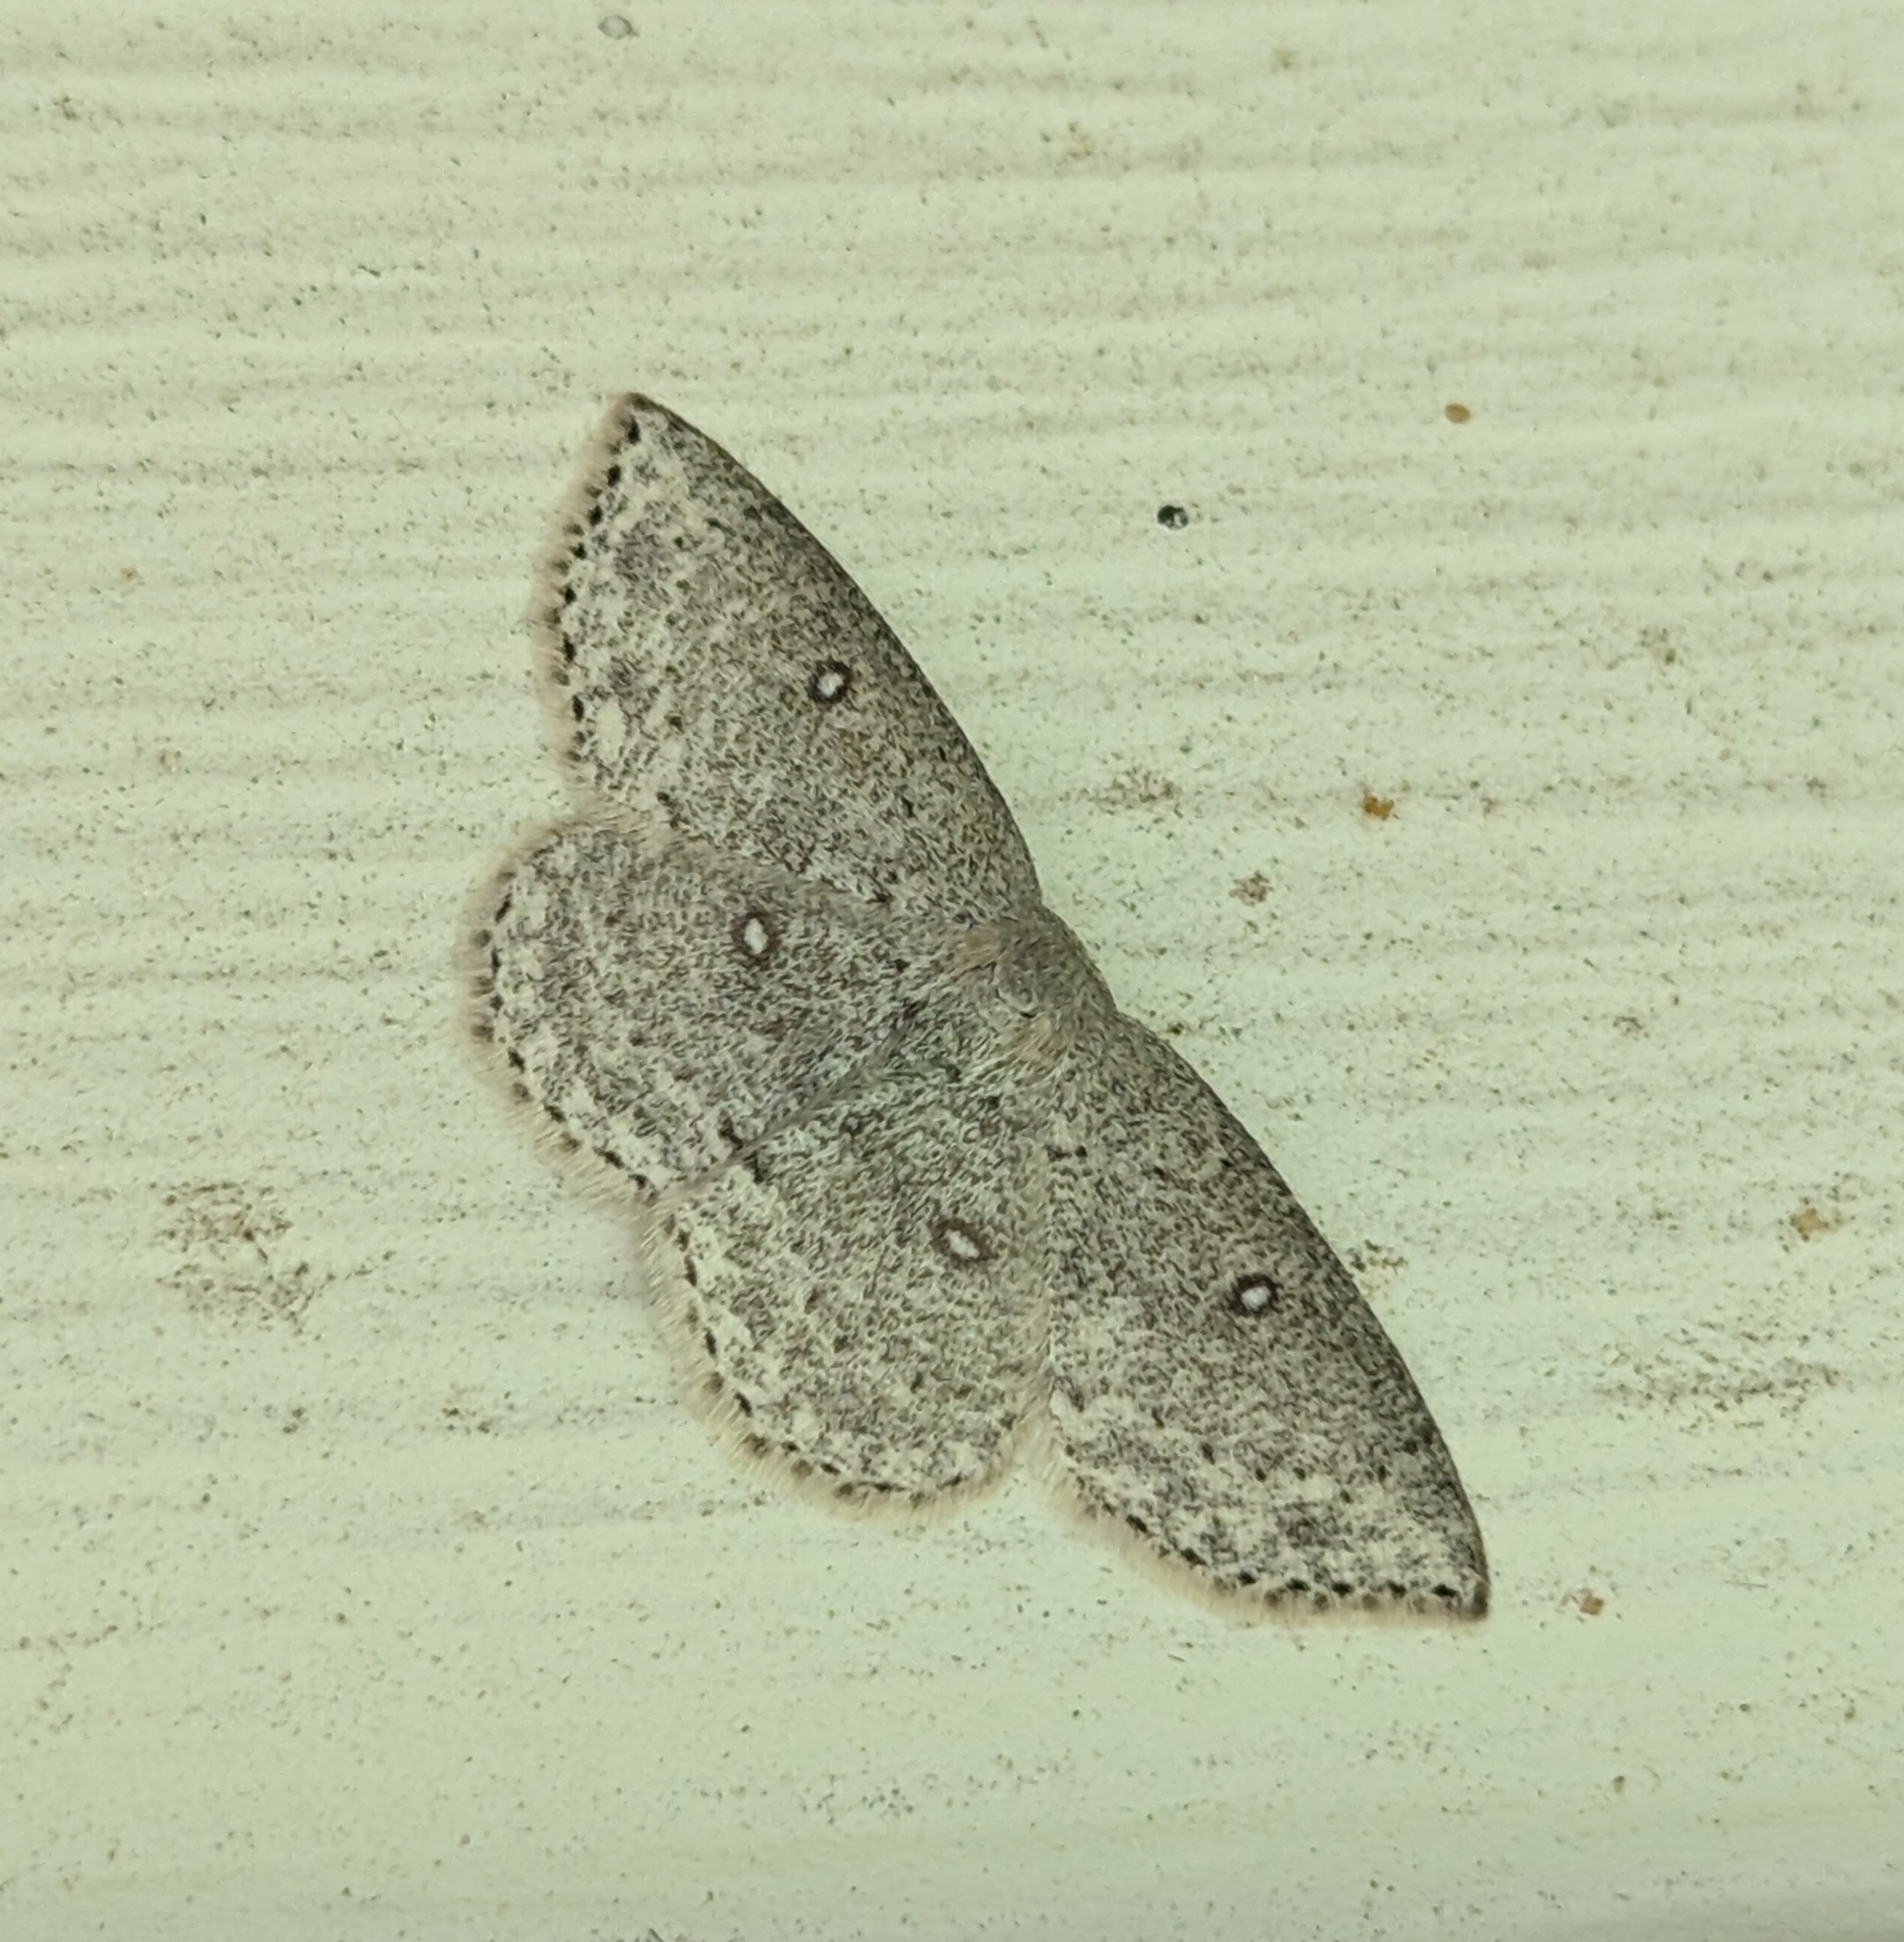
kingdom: Animalia
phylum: Arthropoda
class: Insecta
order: Lepidoptera
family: Geometridae
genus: Cyclophora
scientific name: Cyclophora pendulinaria
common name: Sweet fern geometer
